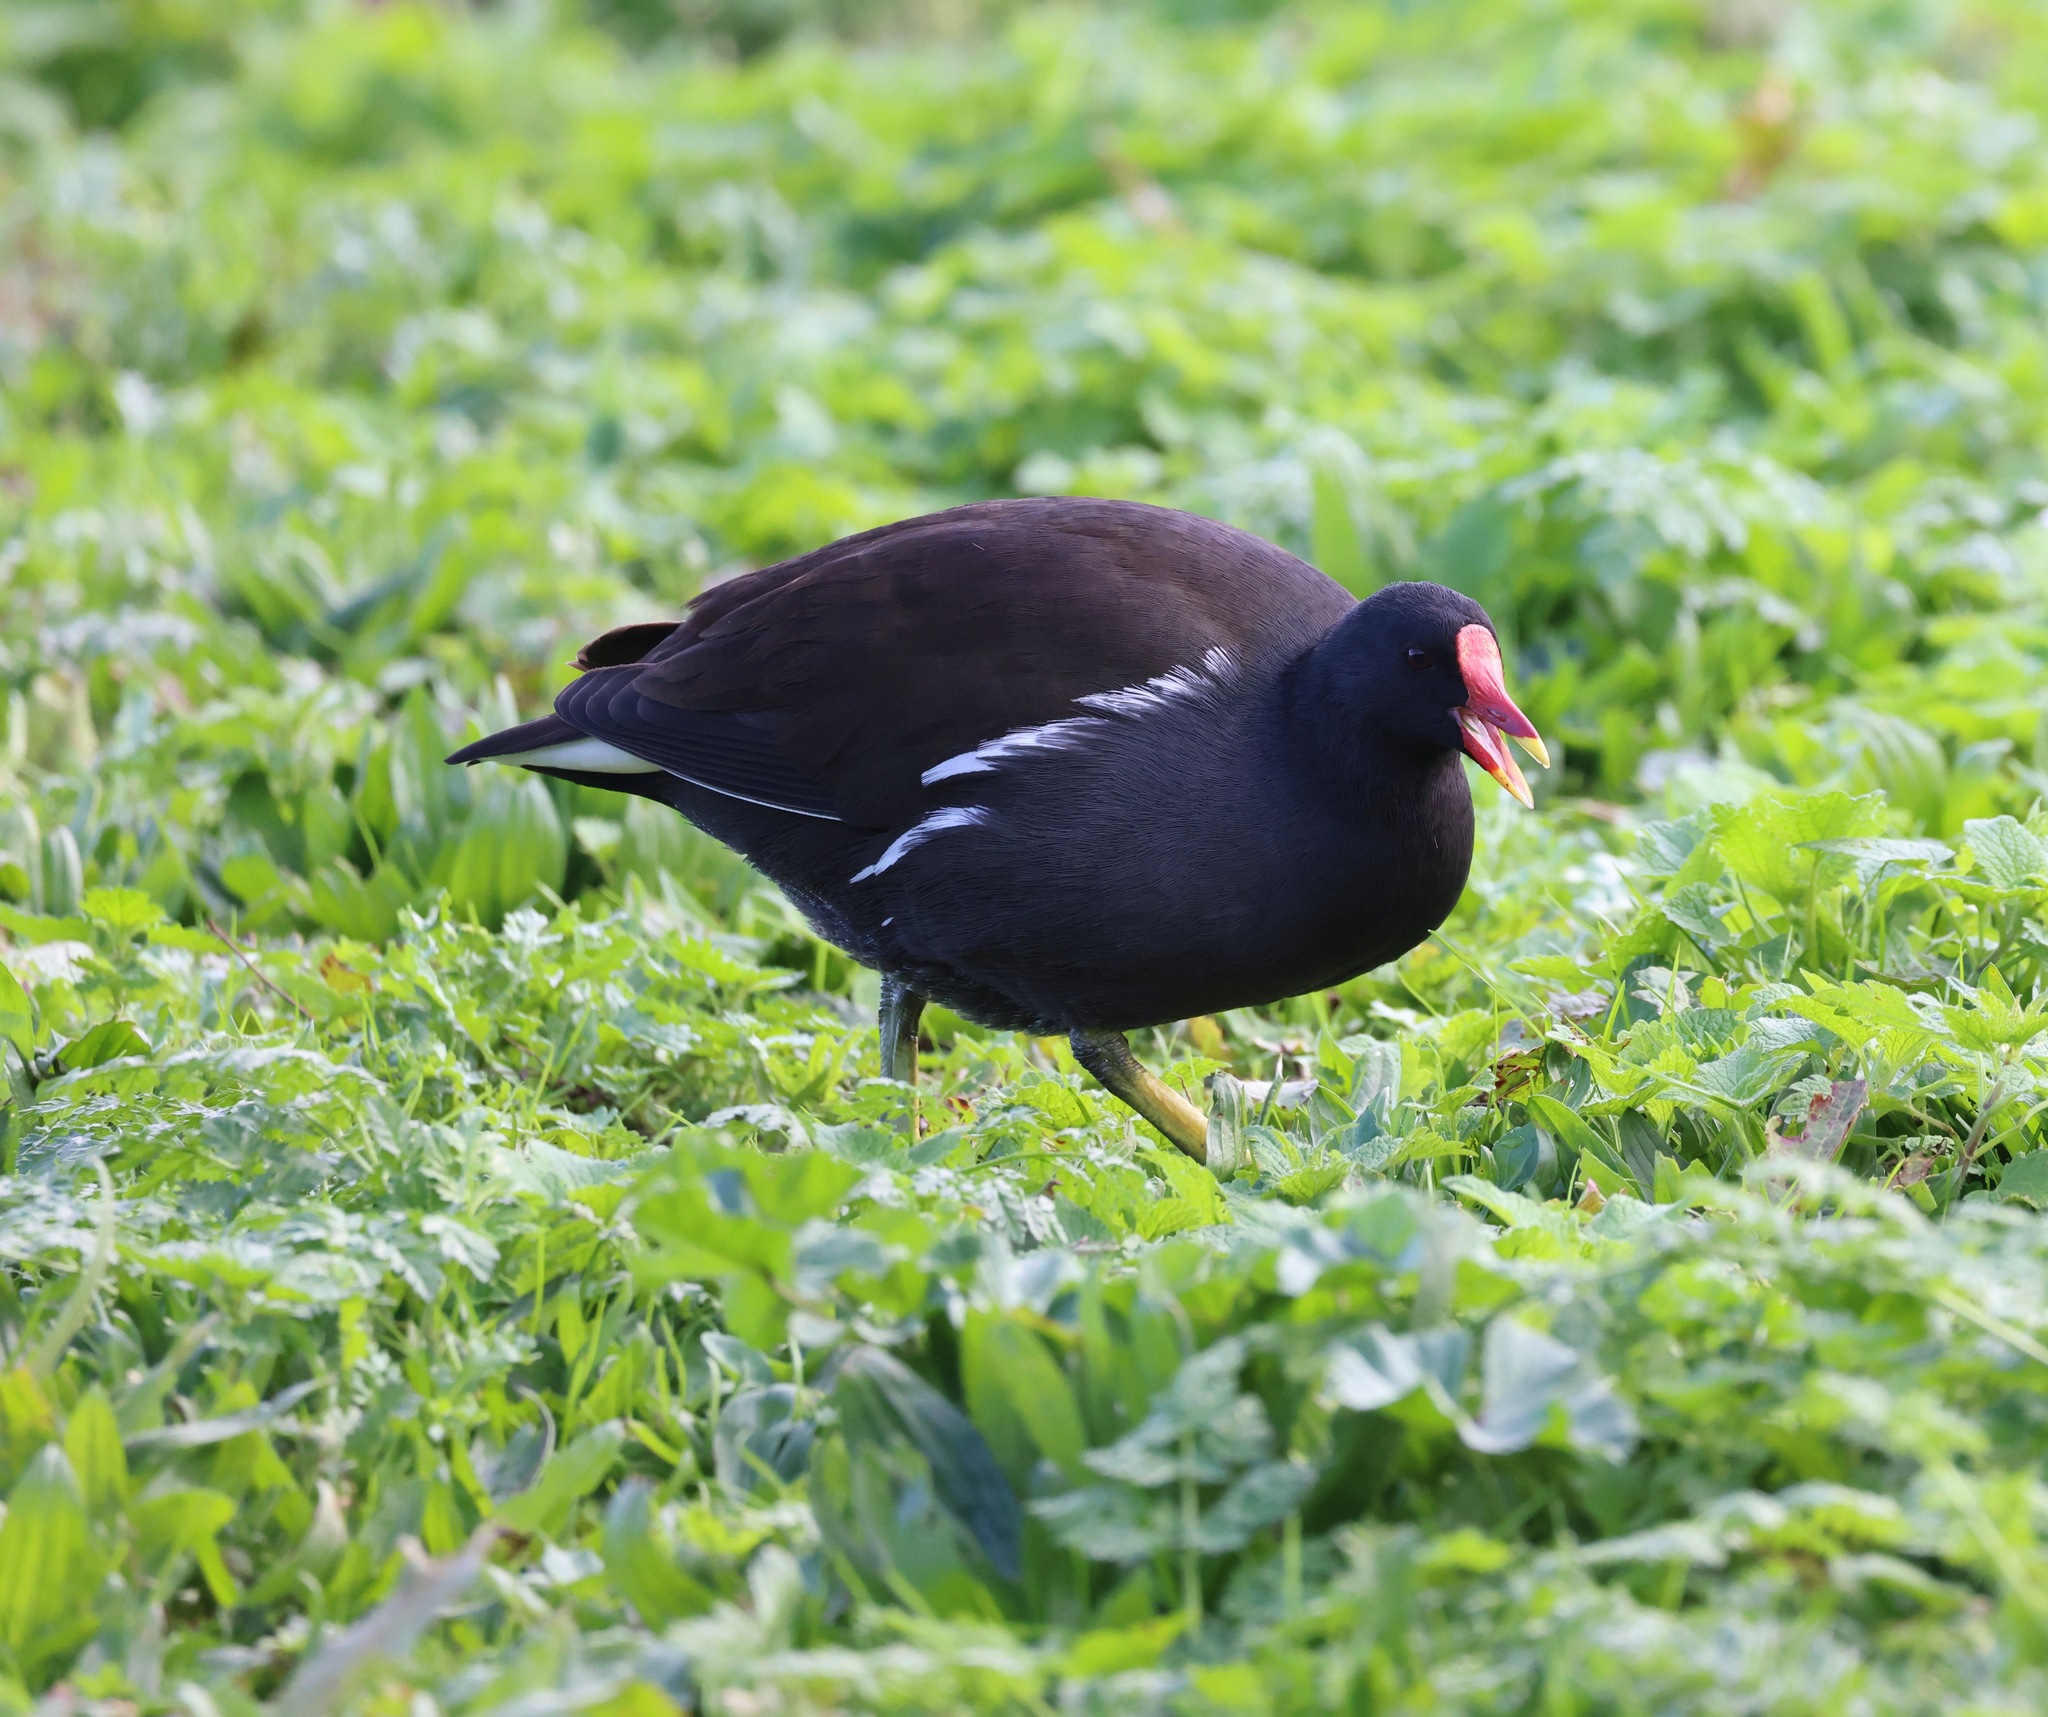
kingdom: Animalia
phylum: Chordata
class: Aves
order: Gruiformes
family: Rallidae
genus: Gallinula
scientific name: Gallinula chloropus
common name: Common moorhen
